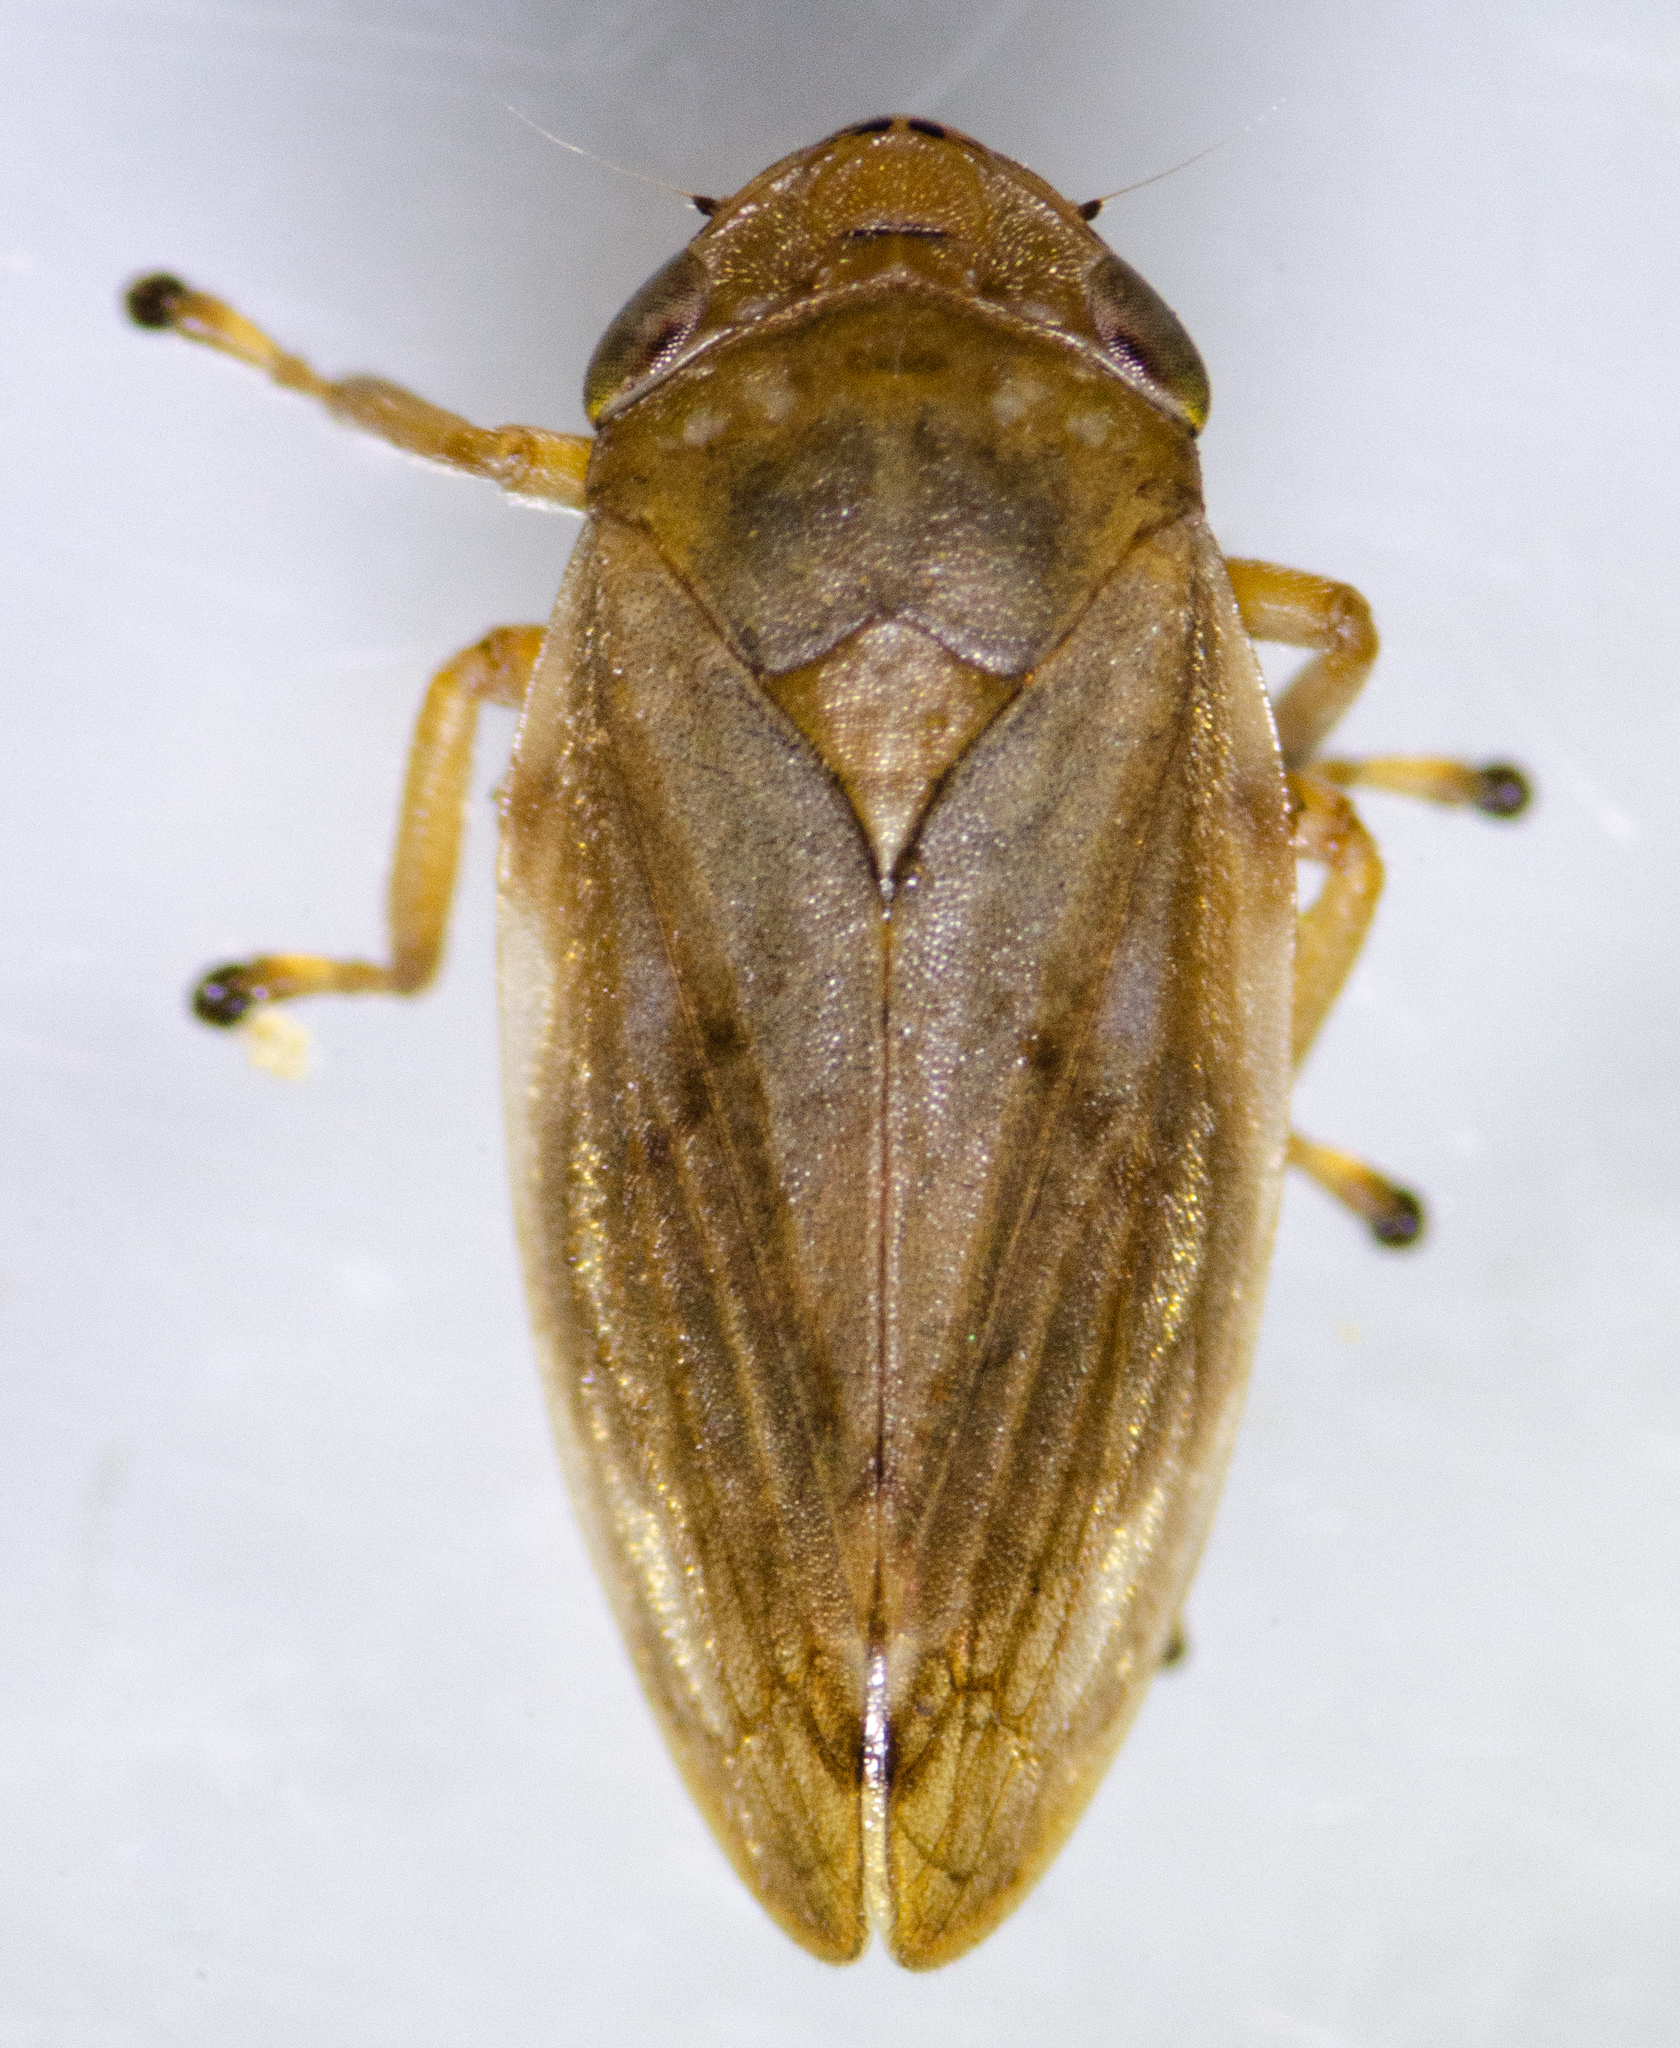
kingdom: Animalia
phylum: Arthropoda
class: Insecta
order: Hemiptera
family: Aphrophoridae
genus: Philaenus
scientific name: Philaenus spumarius
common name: Meadow spittlebug
